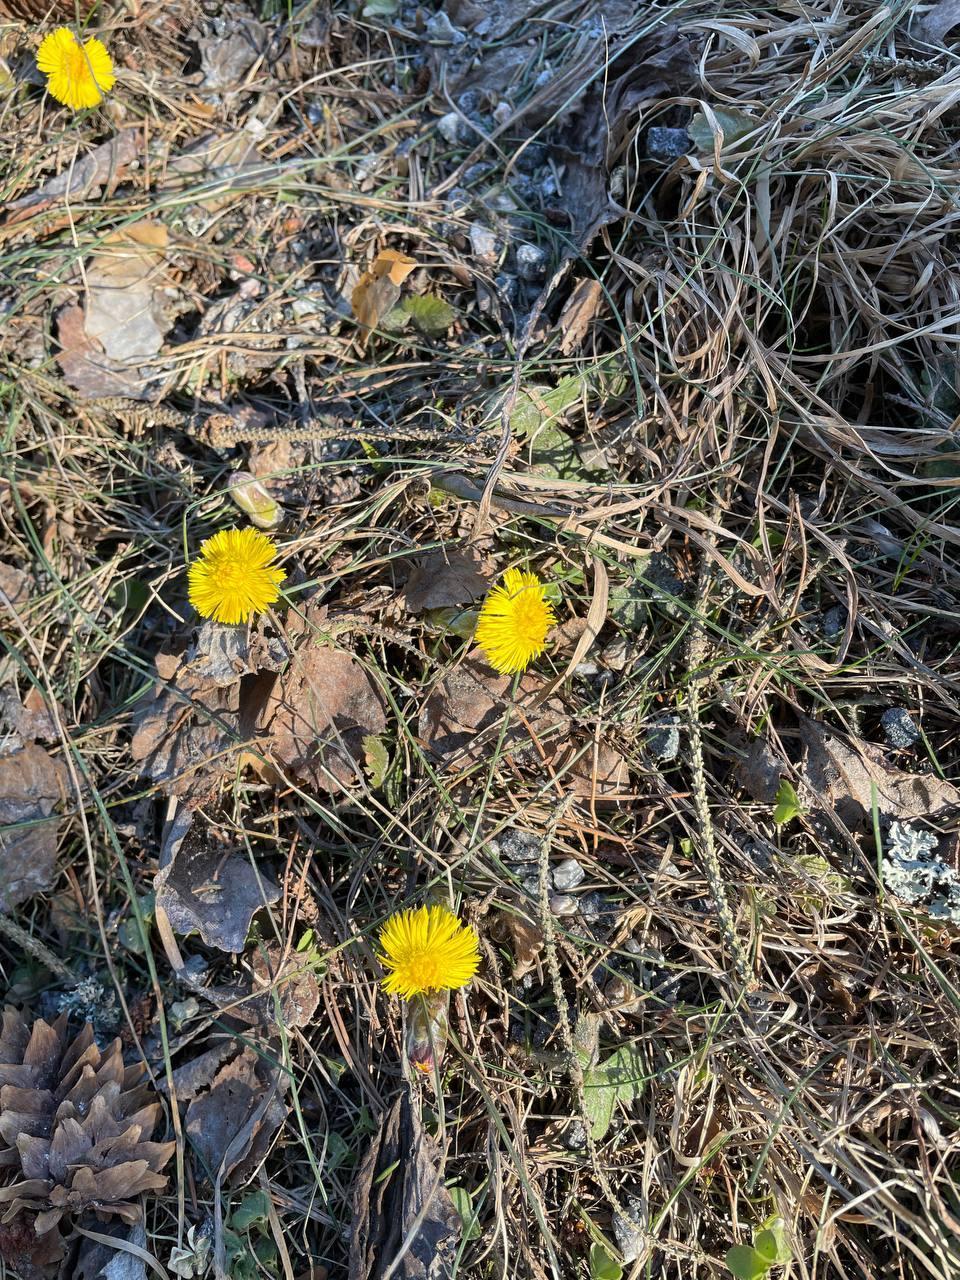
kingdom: Plantae
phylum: Tracheophyta
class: Magnoliopsida
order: Asterales
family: Asteraceae
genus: Tussilago
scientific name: Tussilago farfara
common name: Coltsfoot
